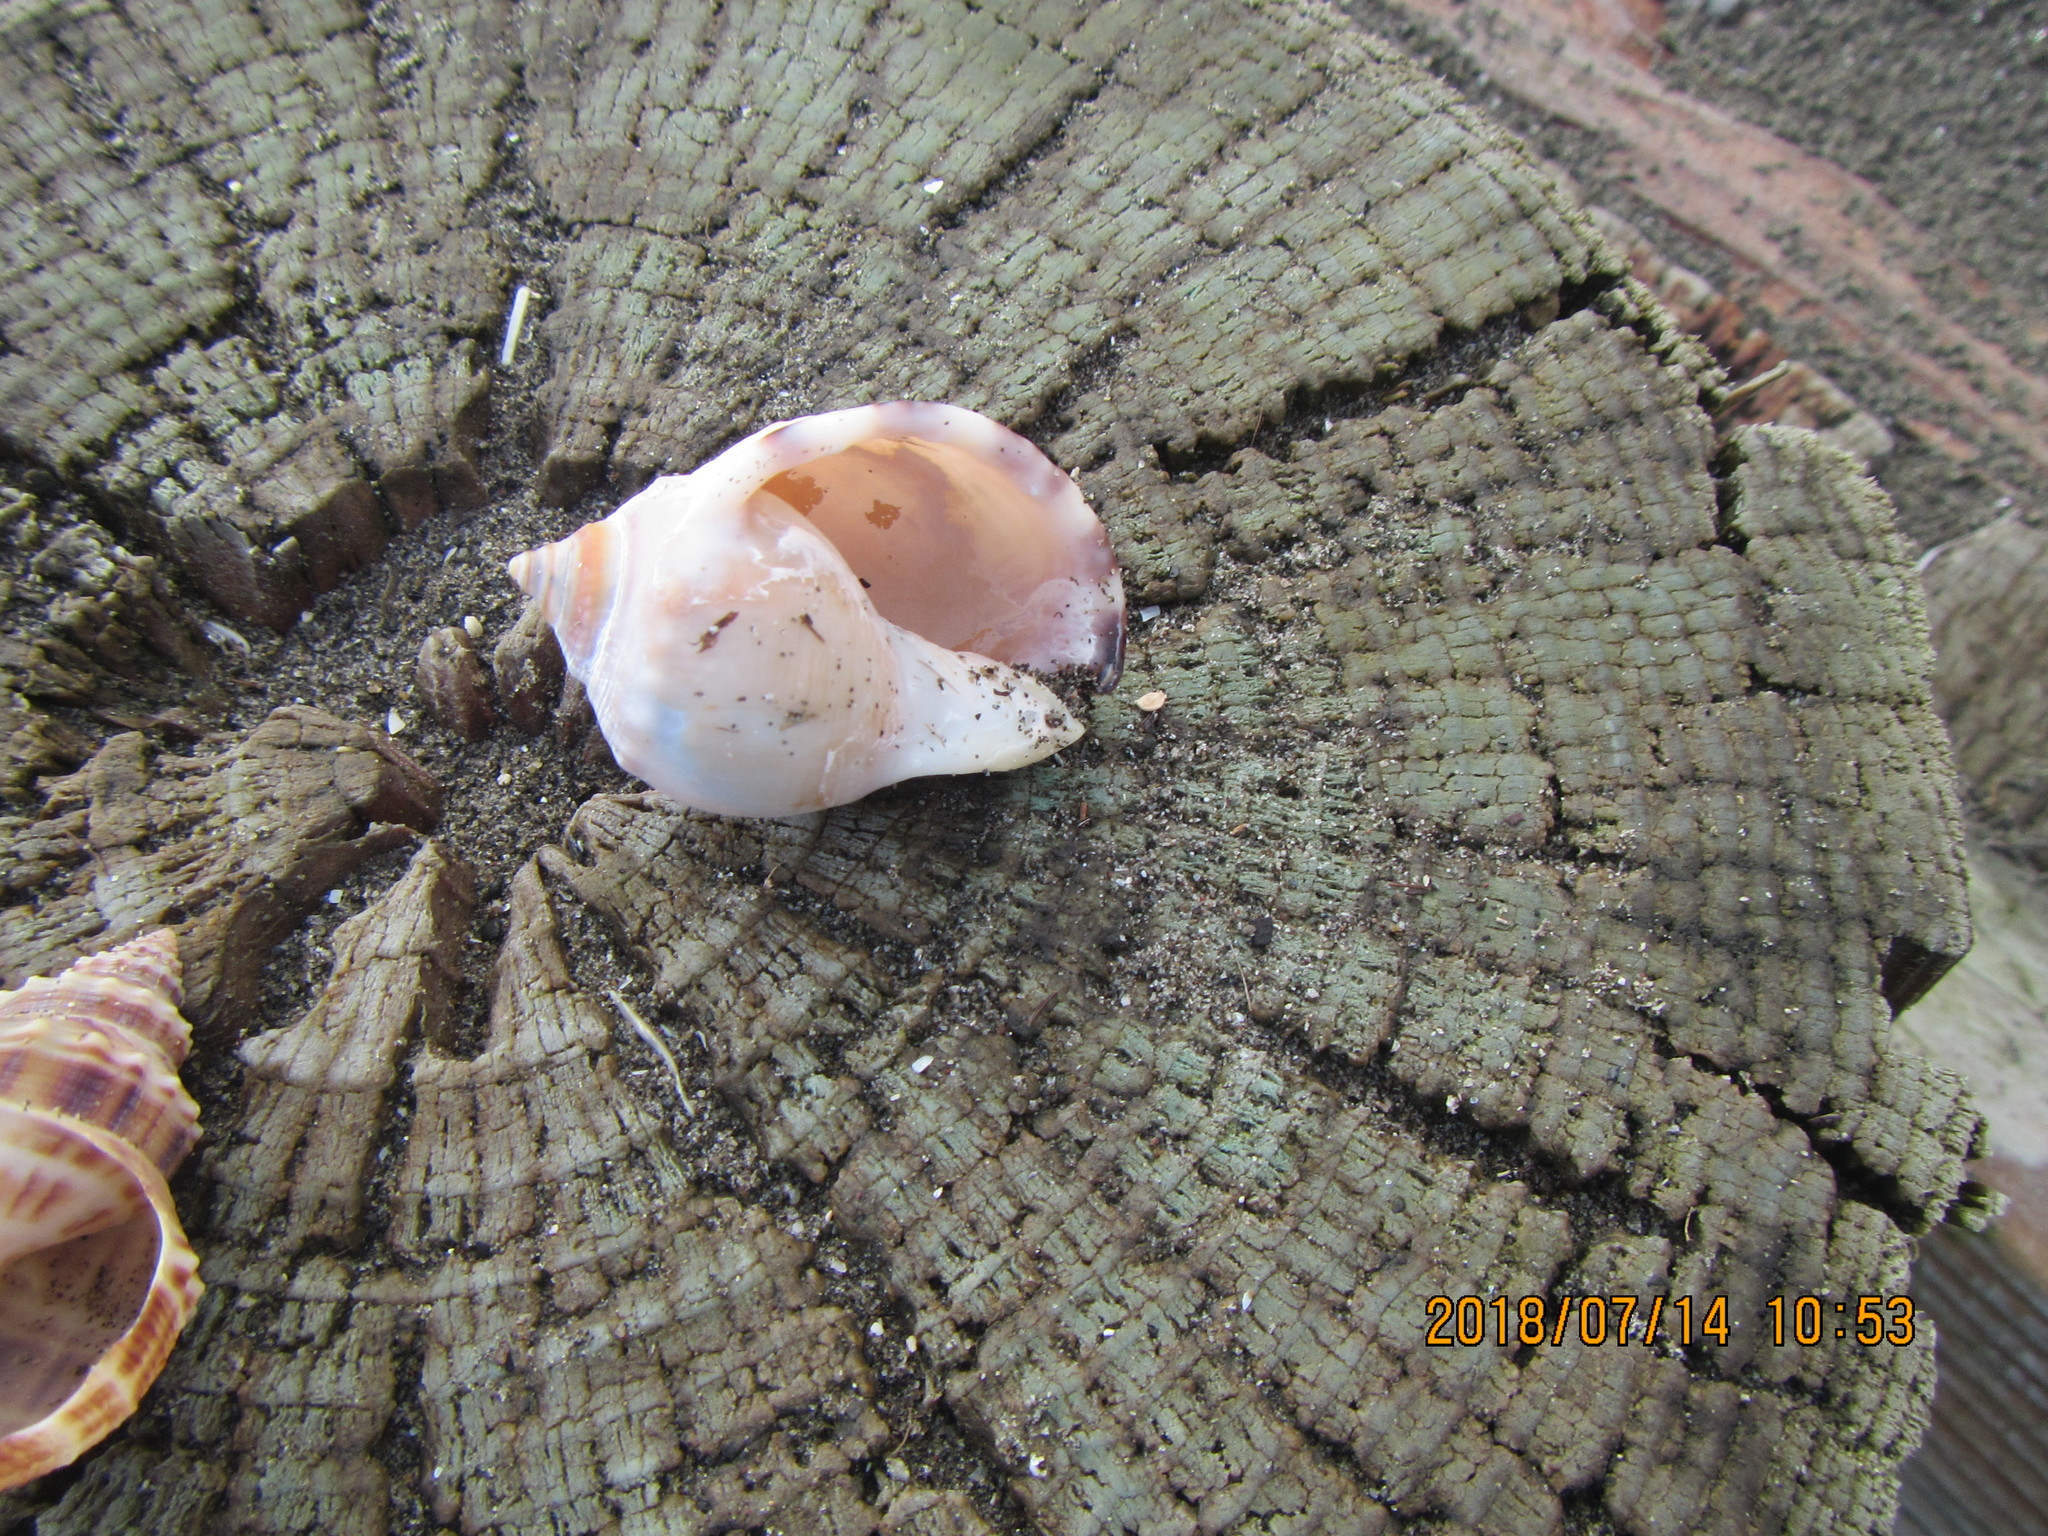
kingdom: Animalia
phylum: Mollusca
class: Gastropoda
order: Littorinimorpha
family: Cassidae
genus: Semicassis
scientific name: Semicassis pyrum
